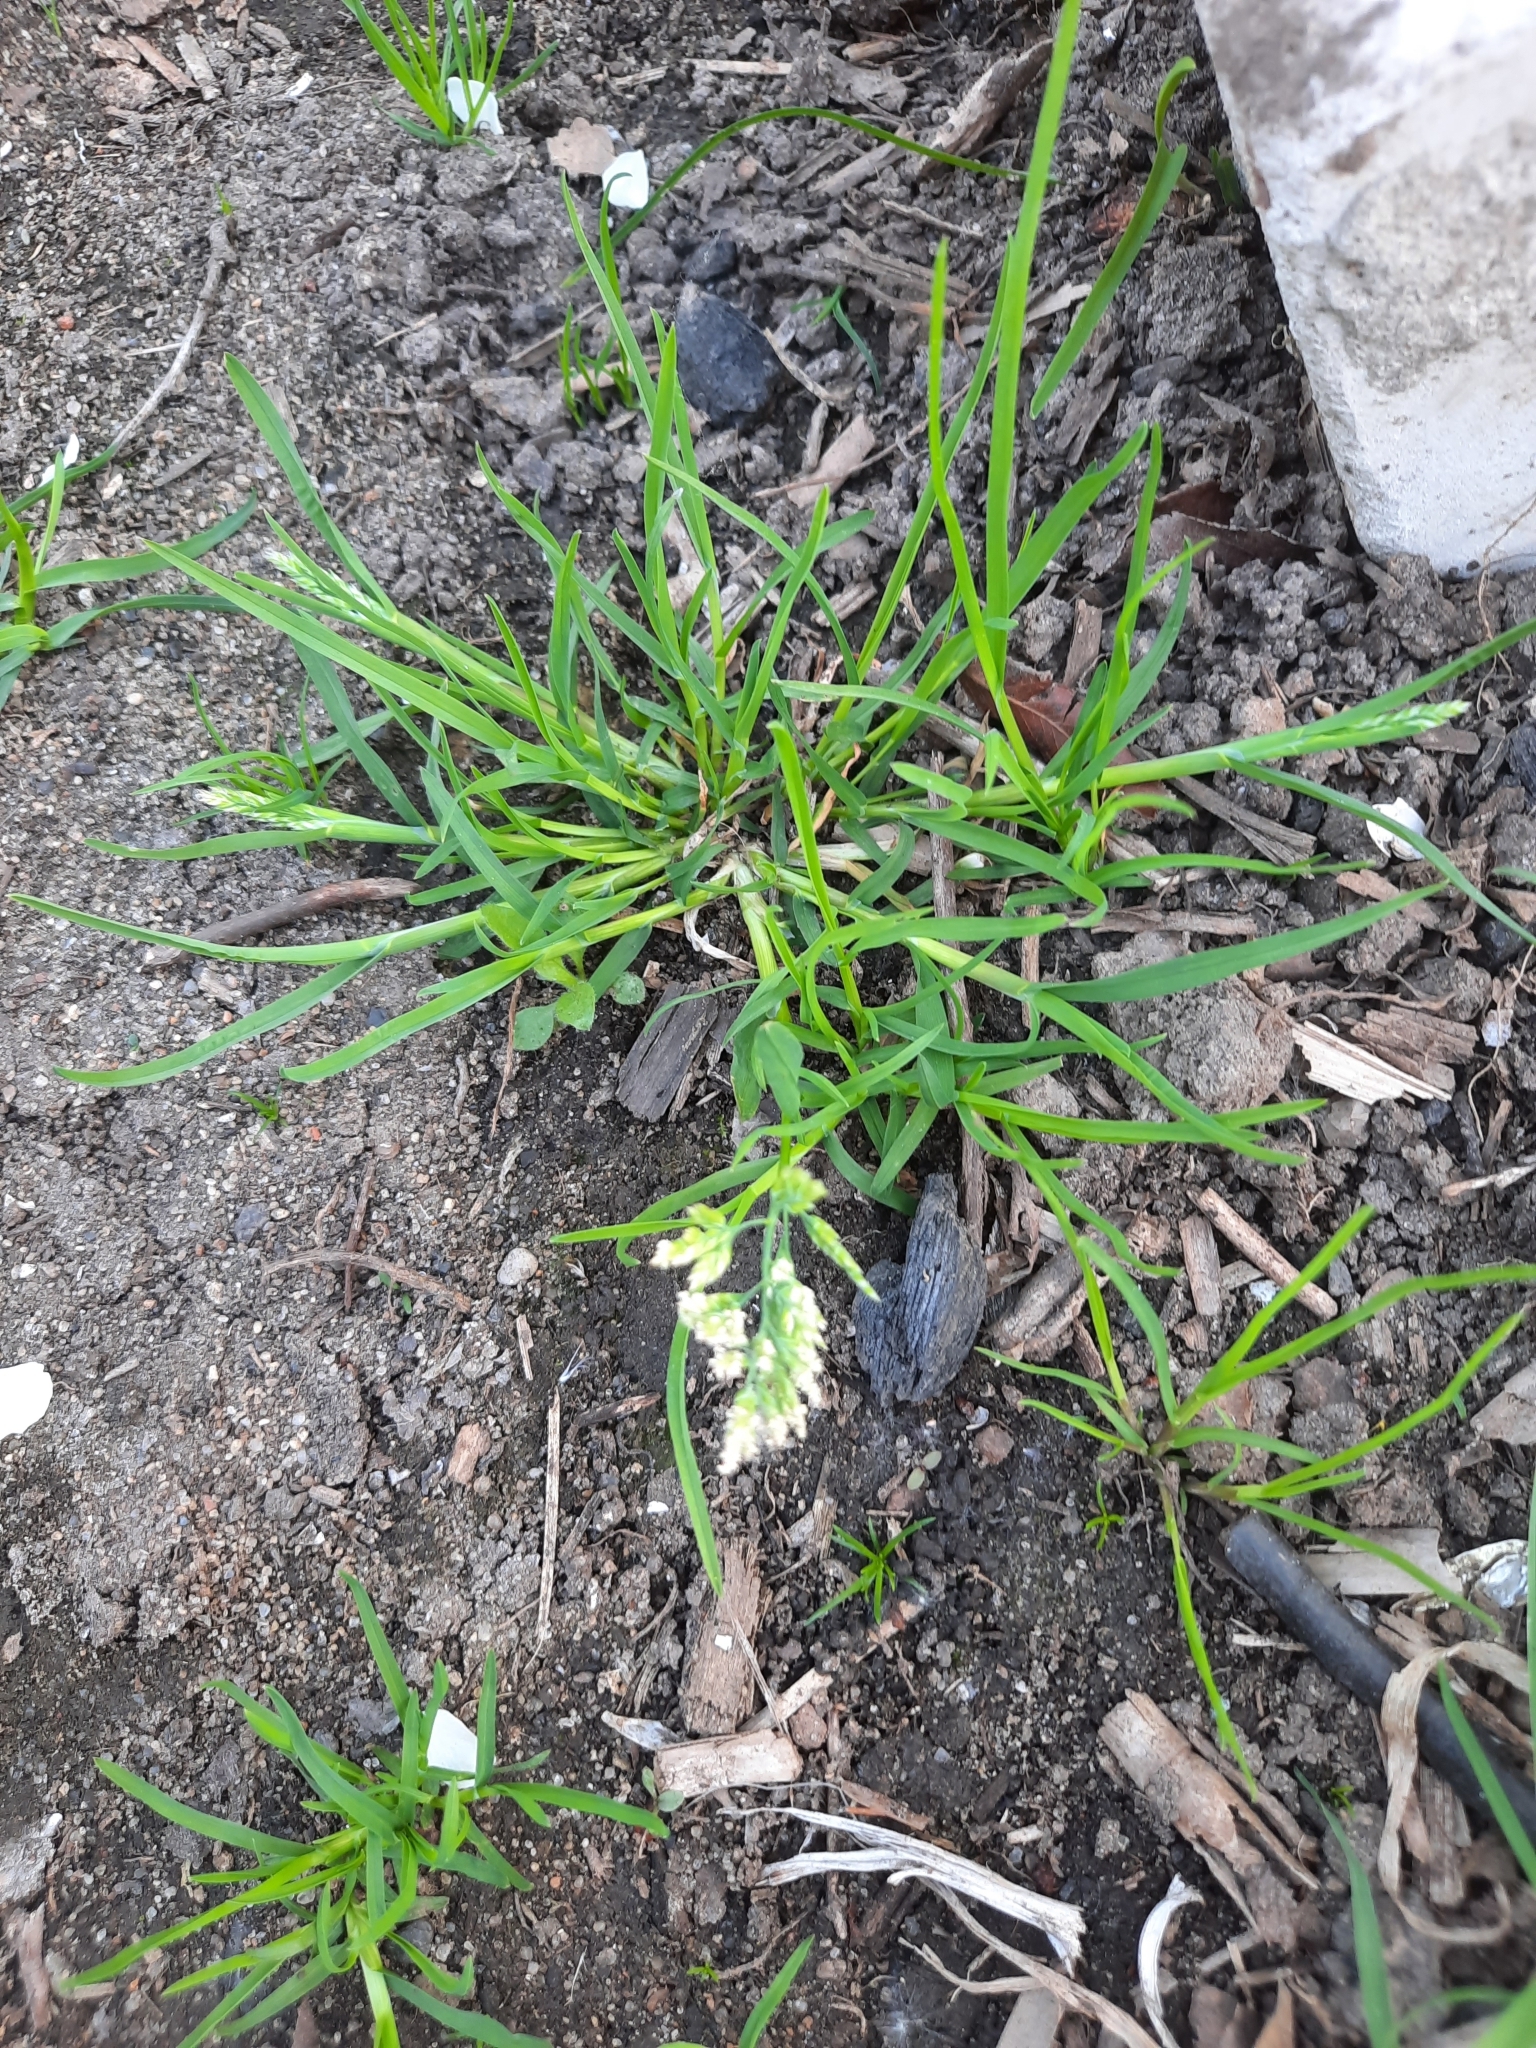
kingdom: Plantae
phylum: Tracheophyta
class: Liliopsida
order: Poales
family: Poaceae
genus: Poa
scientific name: Poa annua
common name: Annual bluegrass
